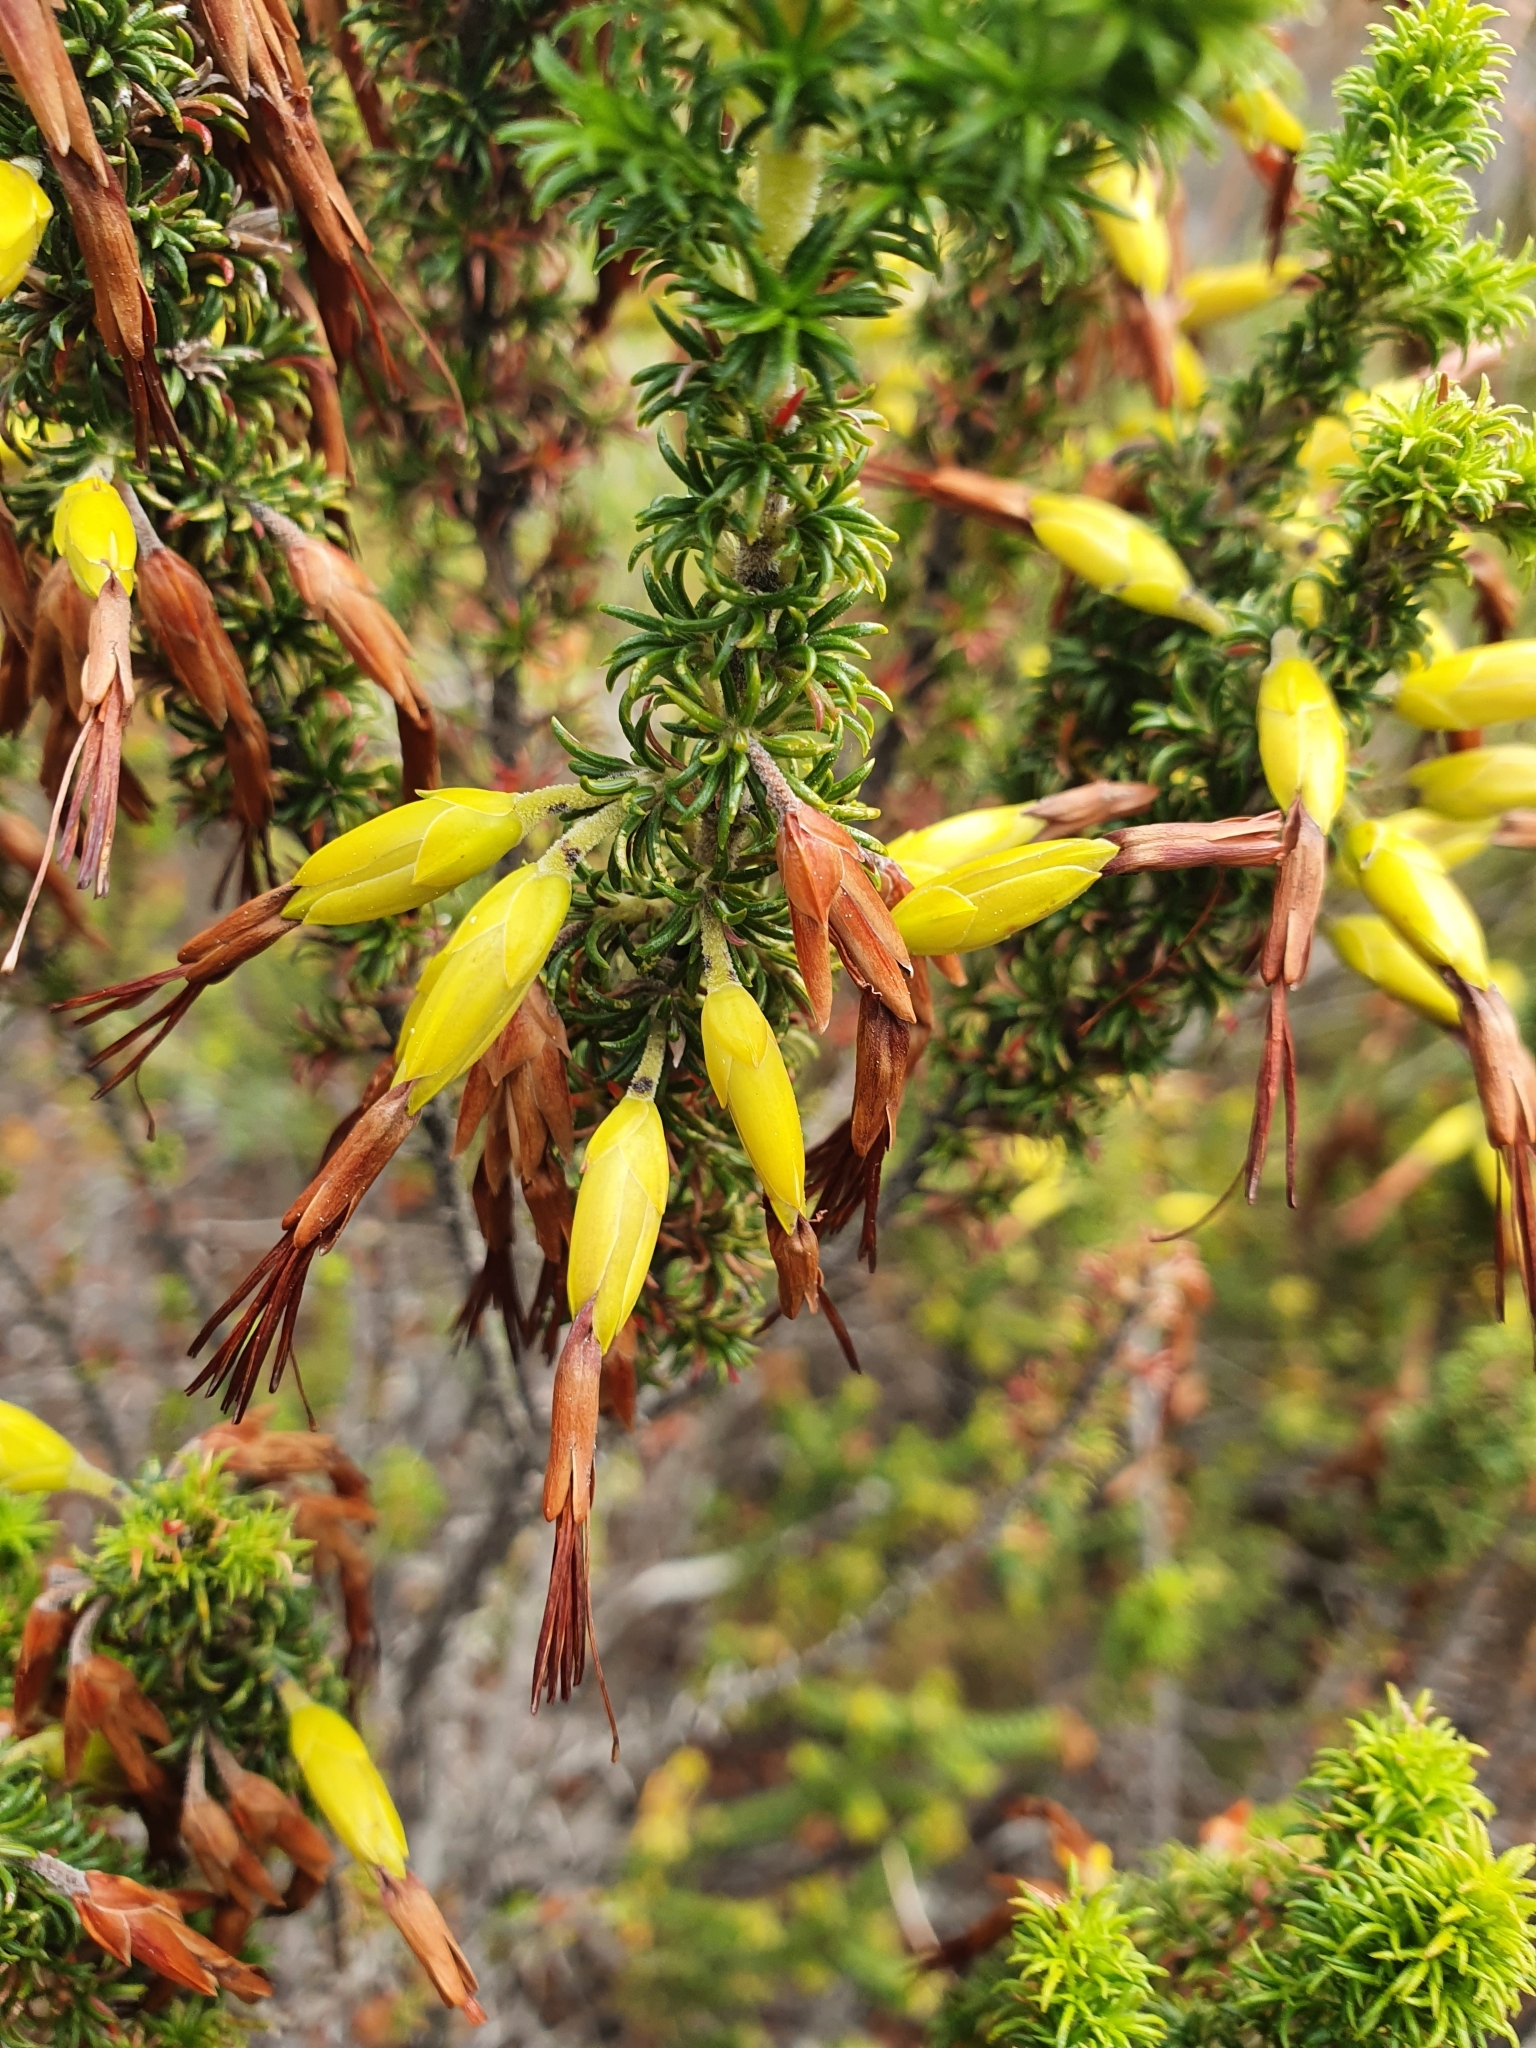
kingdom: Plantae
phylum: Tracheophyta
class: Magnoliopsida
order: Ericales
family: Ericaceae
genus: Erica
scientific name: Erica coccinea
